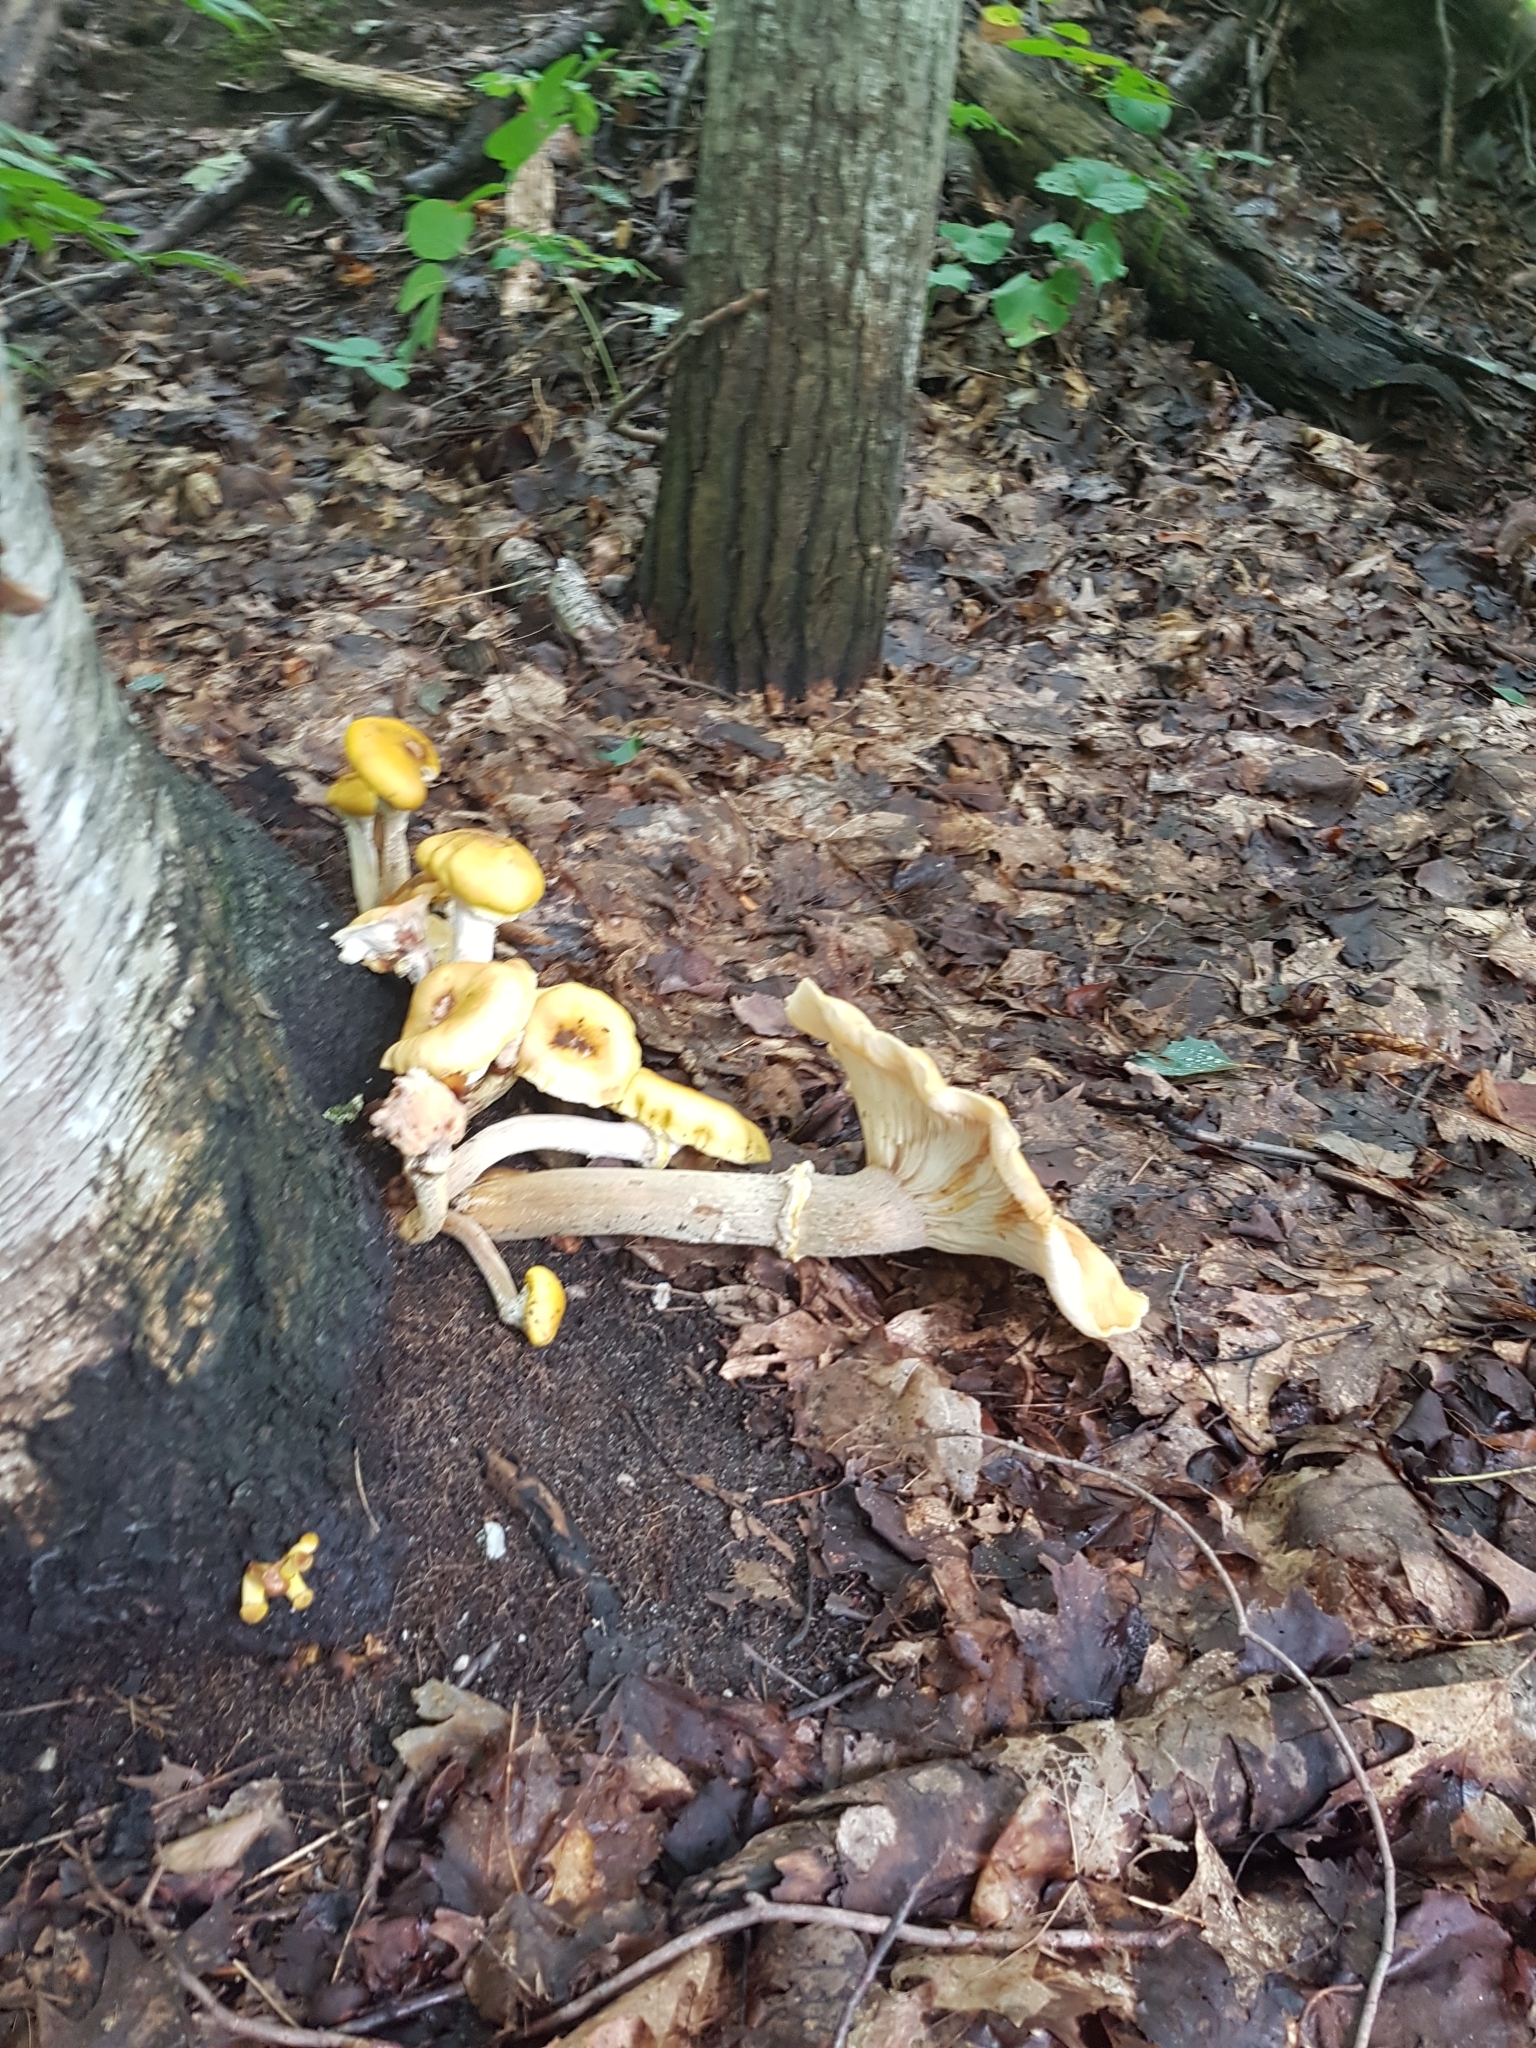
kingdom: Fungi
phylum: Basidiomycota
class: Agaricomycetes
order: Agaricales
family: Physalacriaceae
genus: Armillaria
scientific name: Armillaria mellea
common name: Honey fungus
